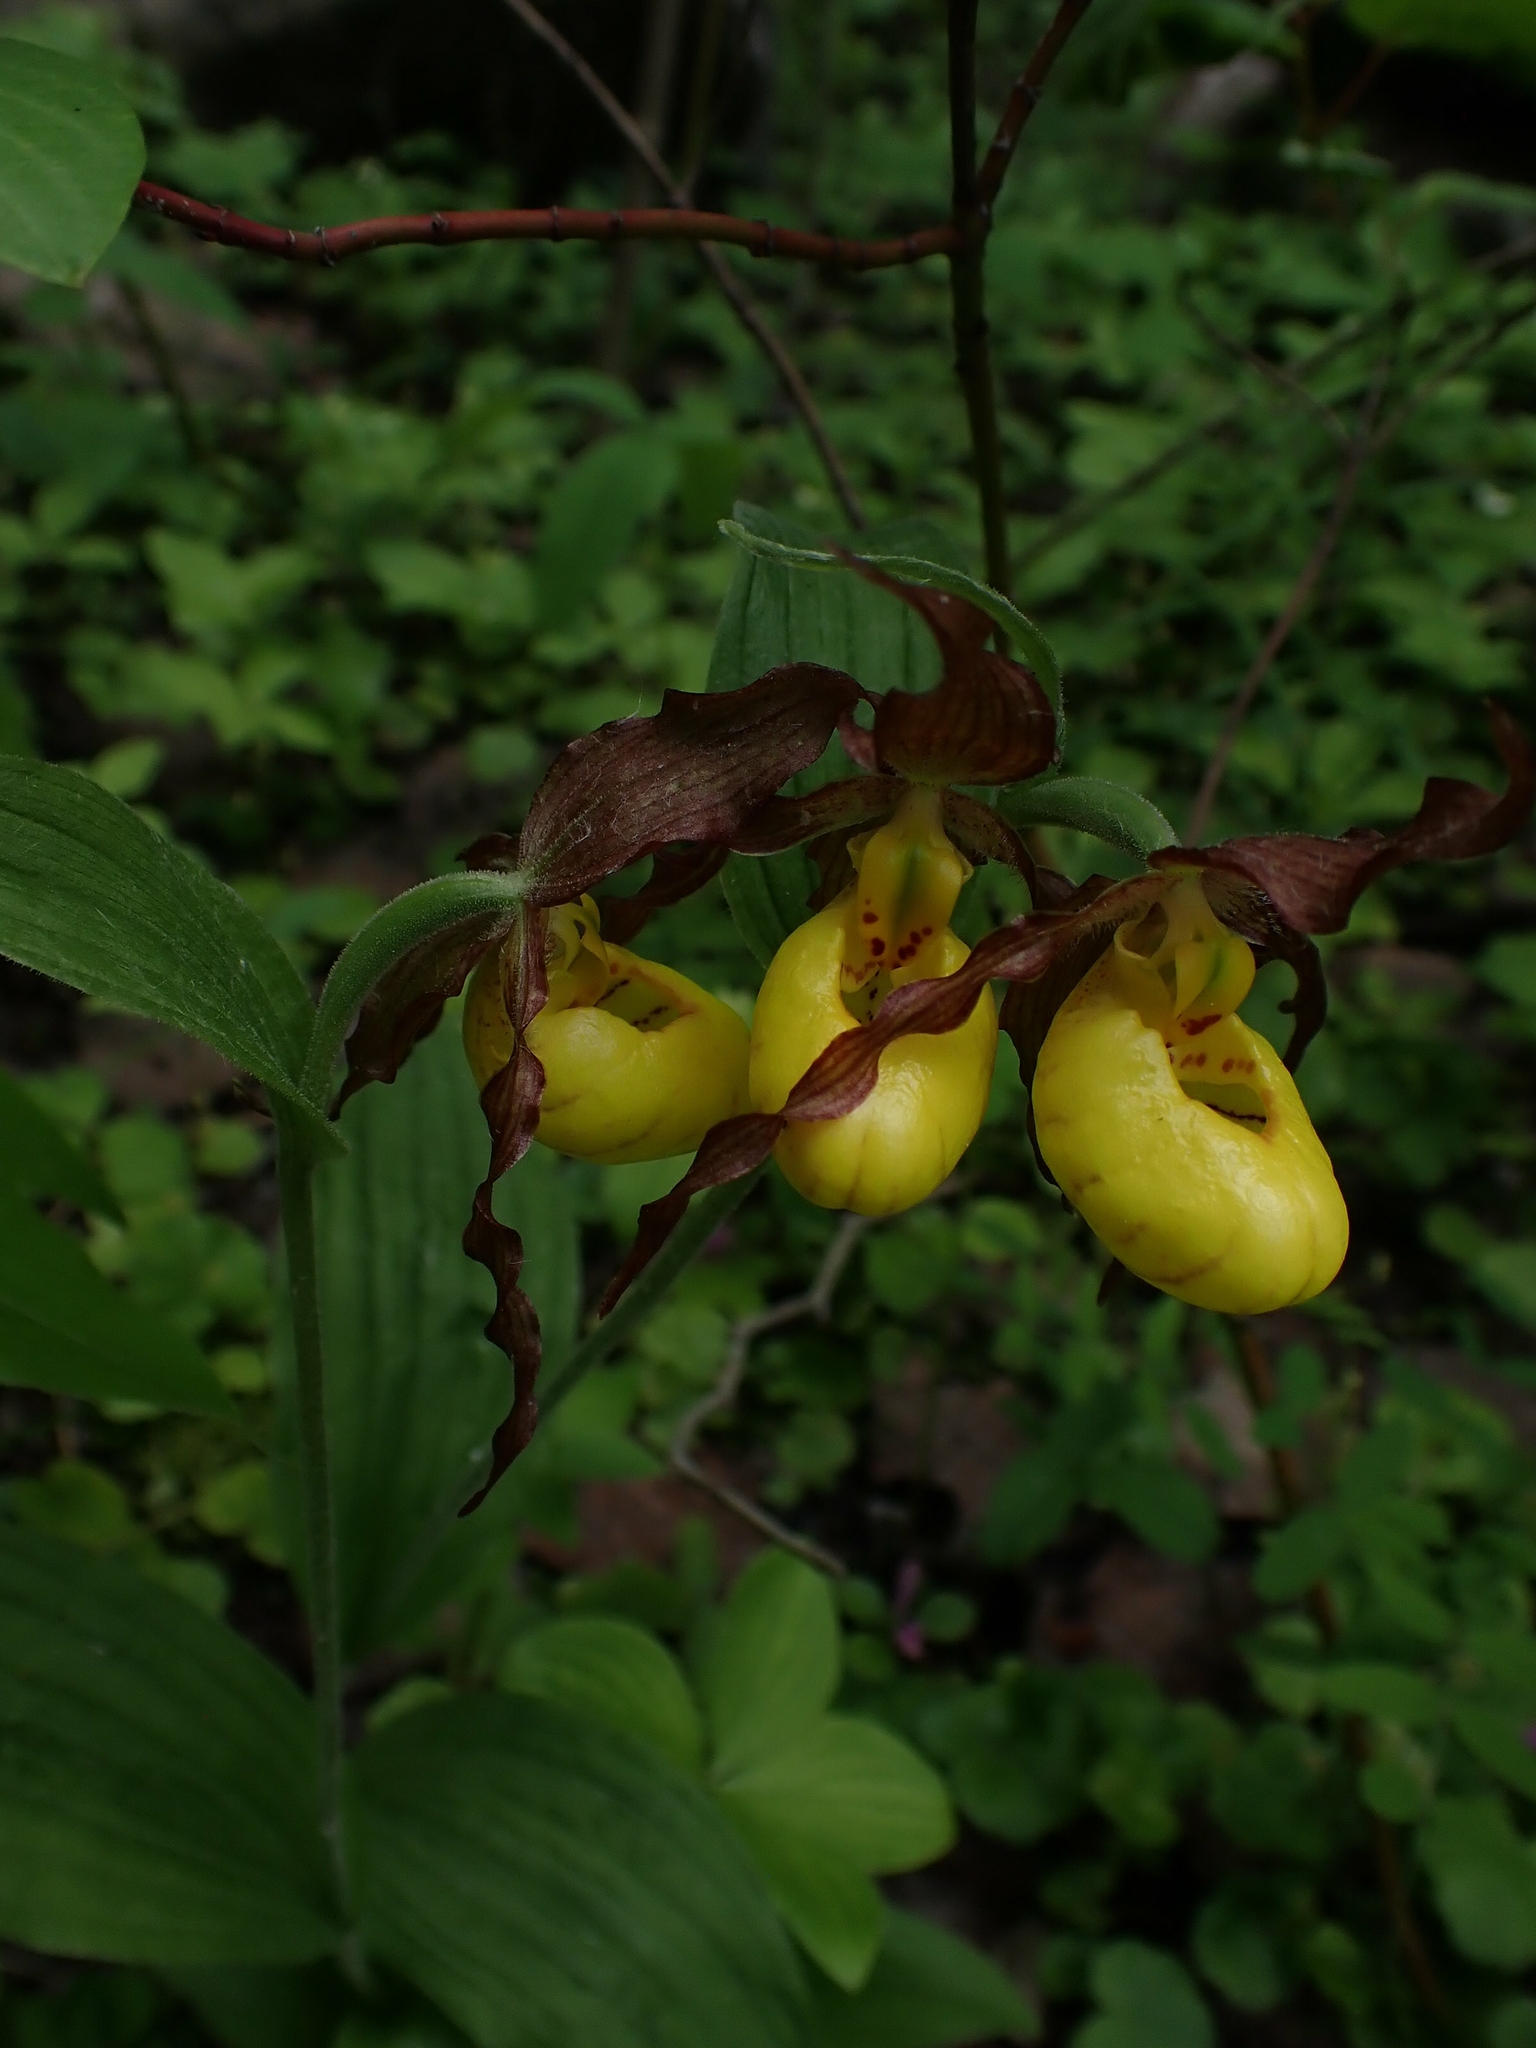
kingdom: Plantae
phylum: Tracheophyta
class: Liliopsida
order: Asparagales
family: Orchidaceae
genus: Cypripedium
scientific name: Cypripedium parviflorum
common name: American yellow lady's-slipper
